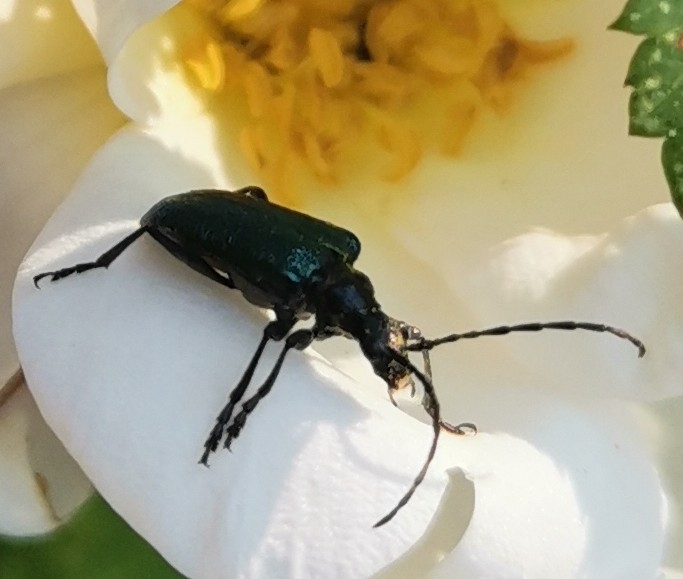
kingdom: Animalia
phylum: Arthropoda
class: Insecta
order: Coleoptera
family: Cerambycidae
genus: Gaurotes
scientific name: Gaurotes virginea
